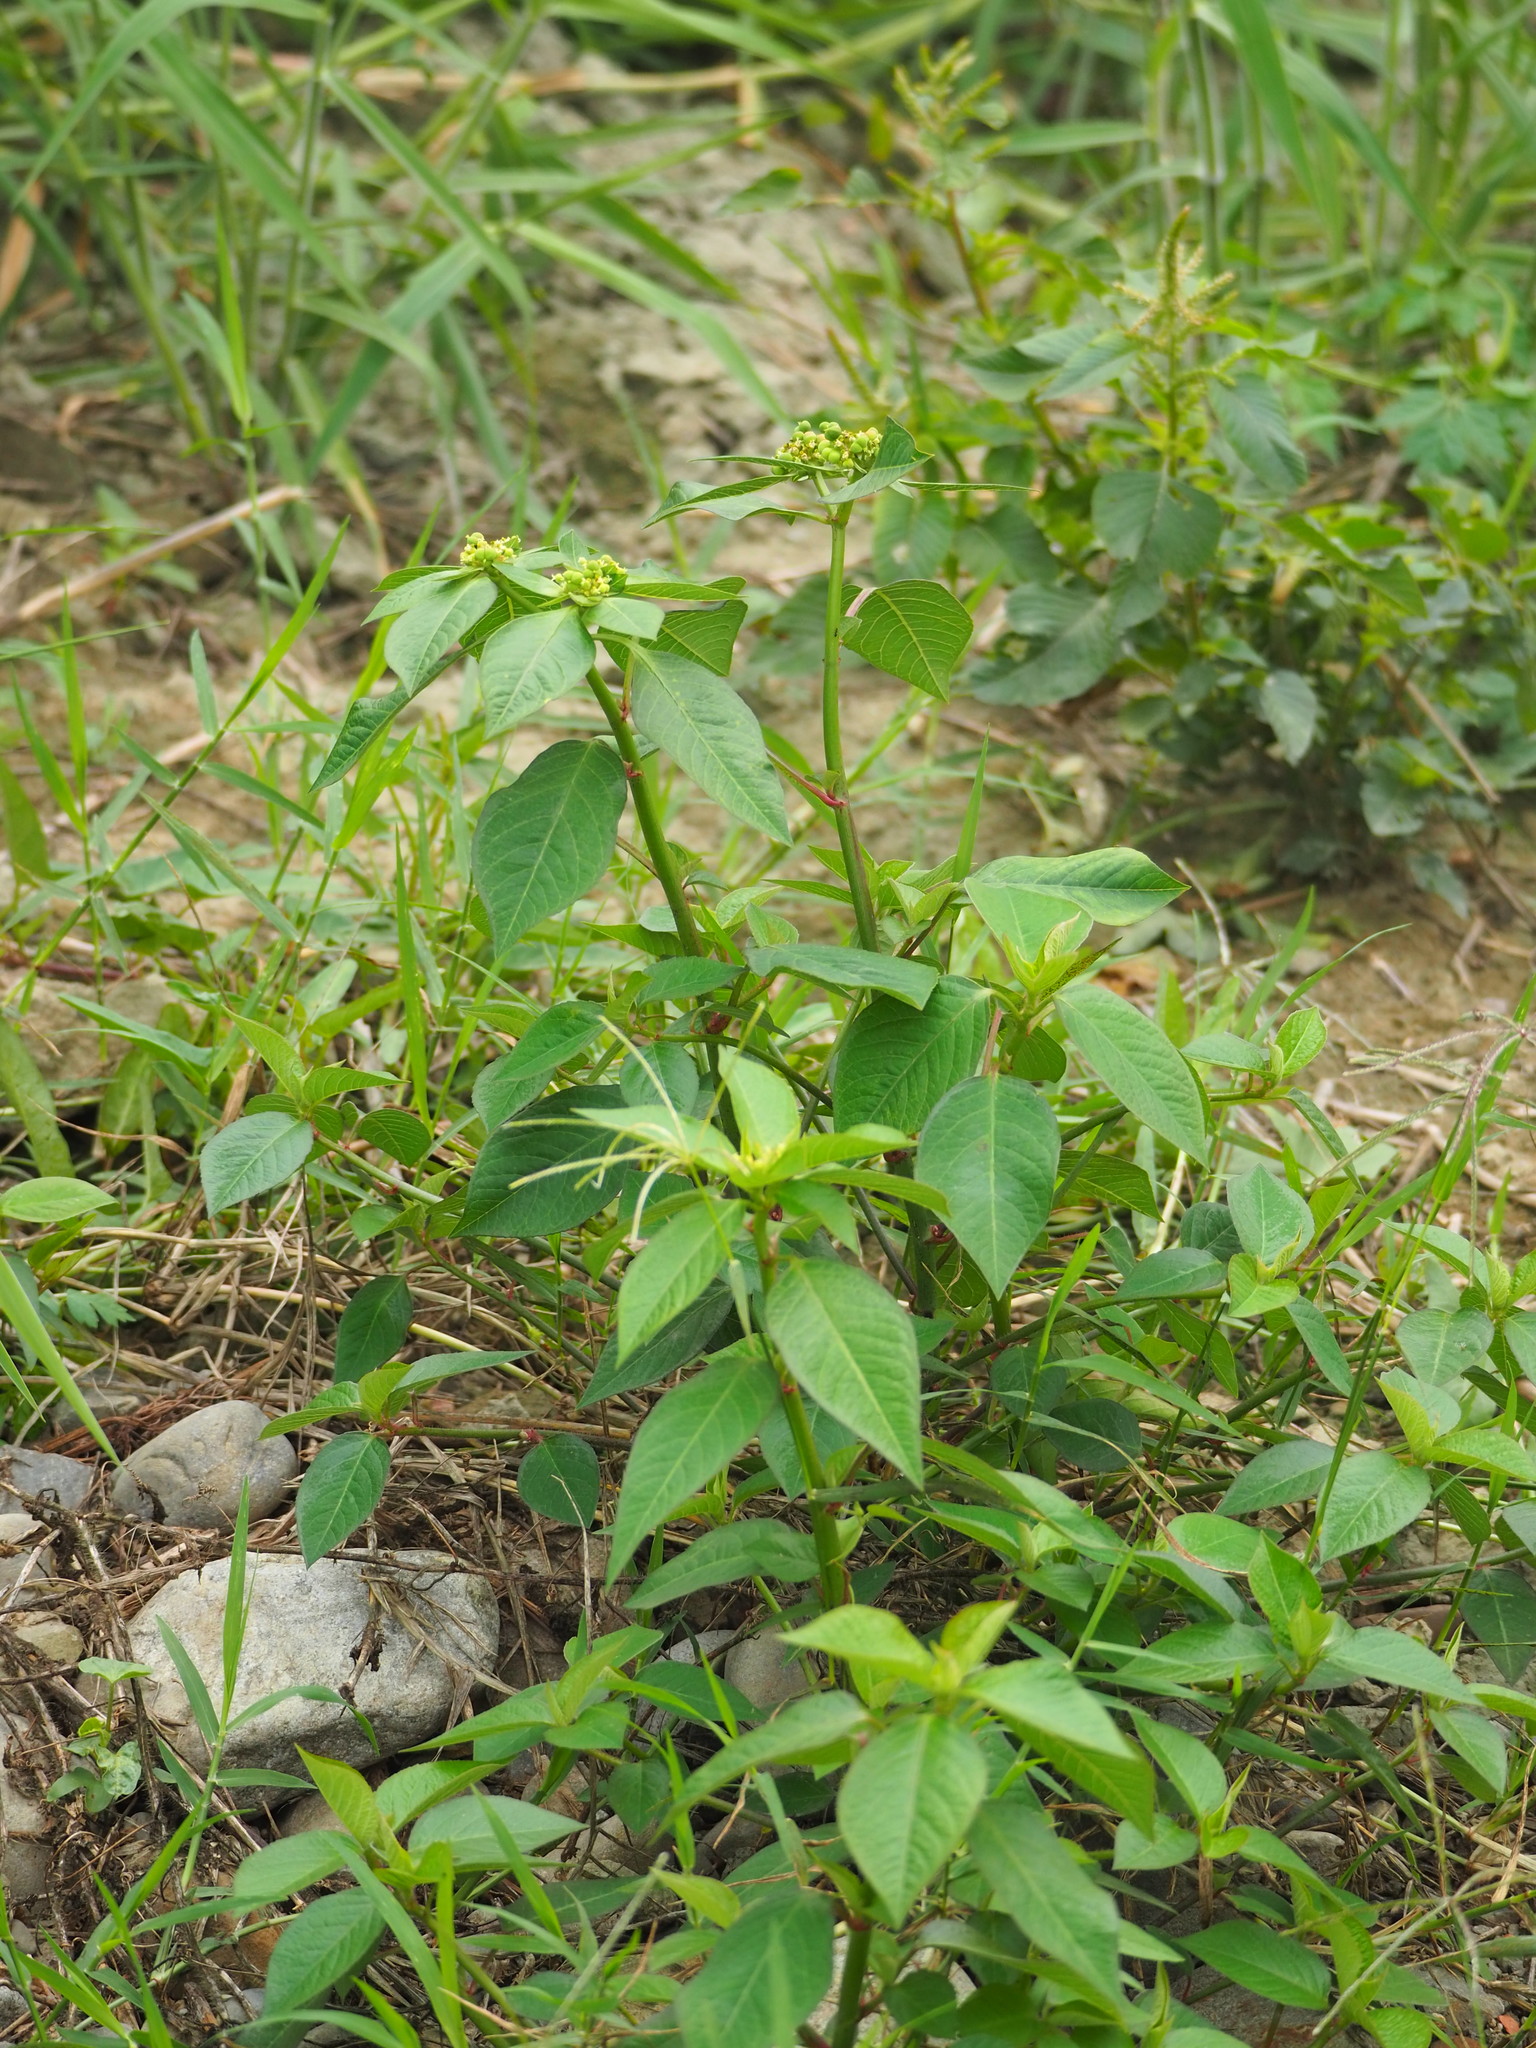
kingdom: Plantae
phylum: Tracheophyta
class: Magnoliopsida
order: Malpighiales
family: Euphorbiaceae
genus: Euphorbia
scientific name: Euphorbia heterophylla
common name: Mexican fireplant
